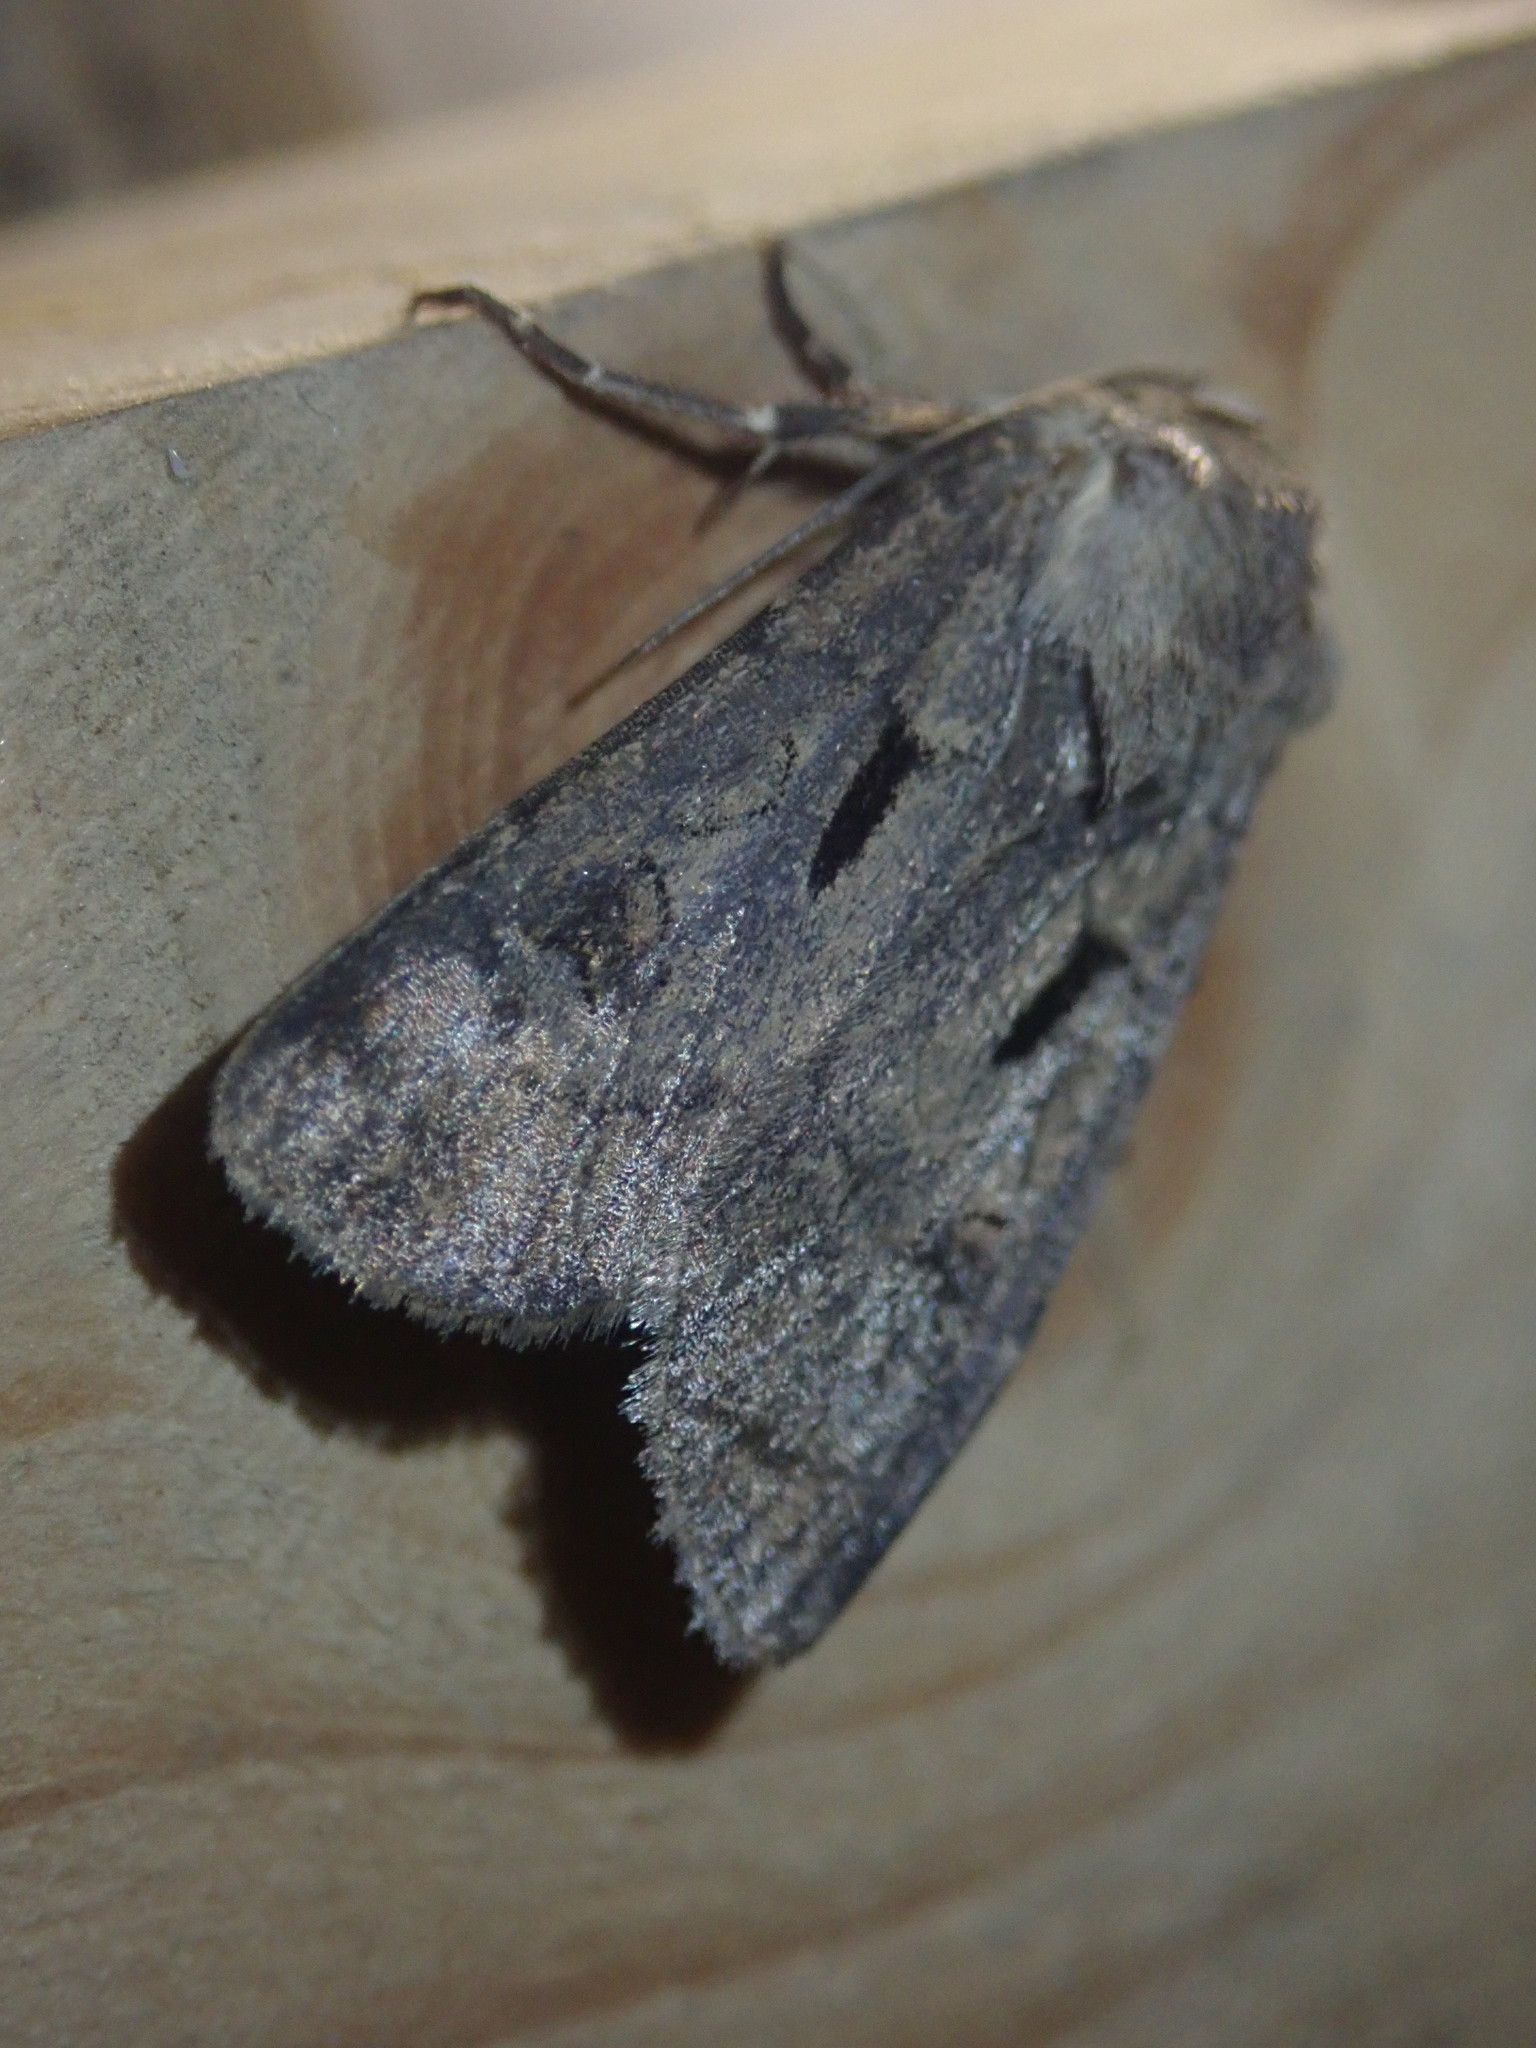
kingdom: Animalia
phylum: Arthropoda
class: Insecta
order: Lepidoptera
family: Noctuidae
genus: Agrotis
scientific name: Agrotis exclamationis
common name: Heart and dart
